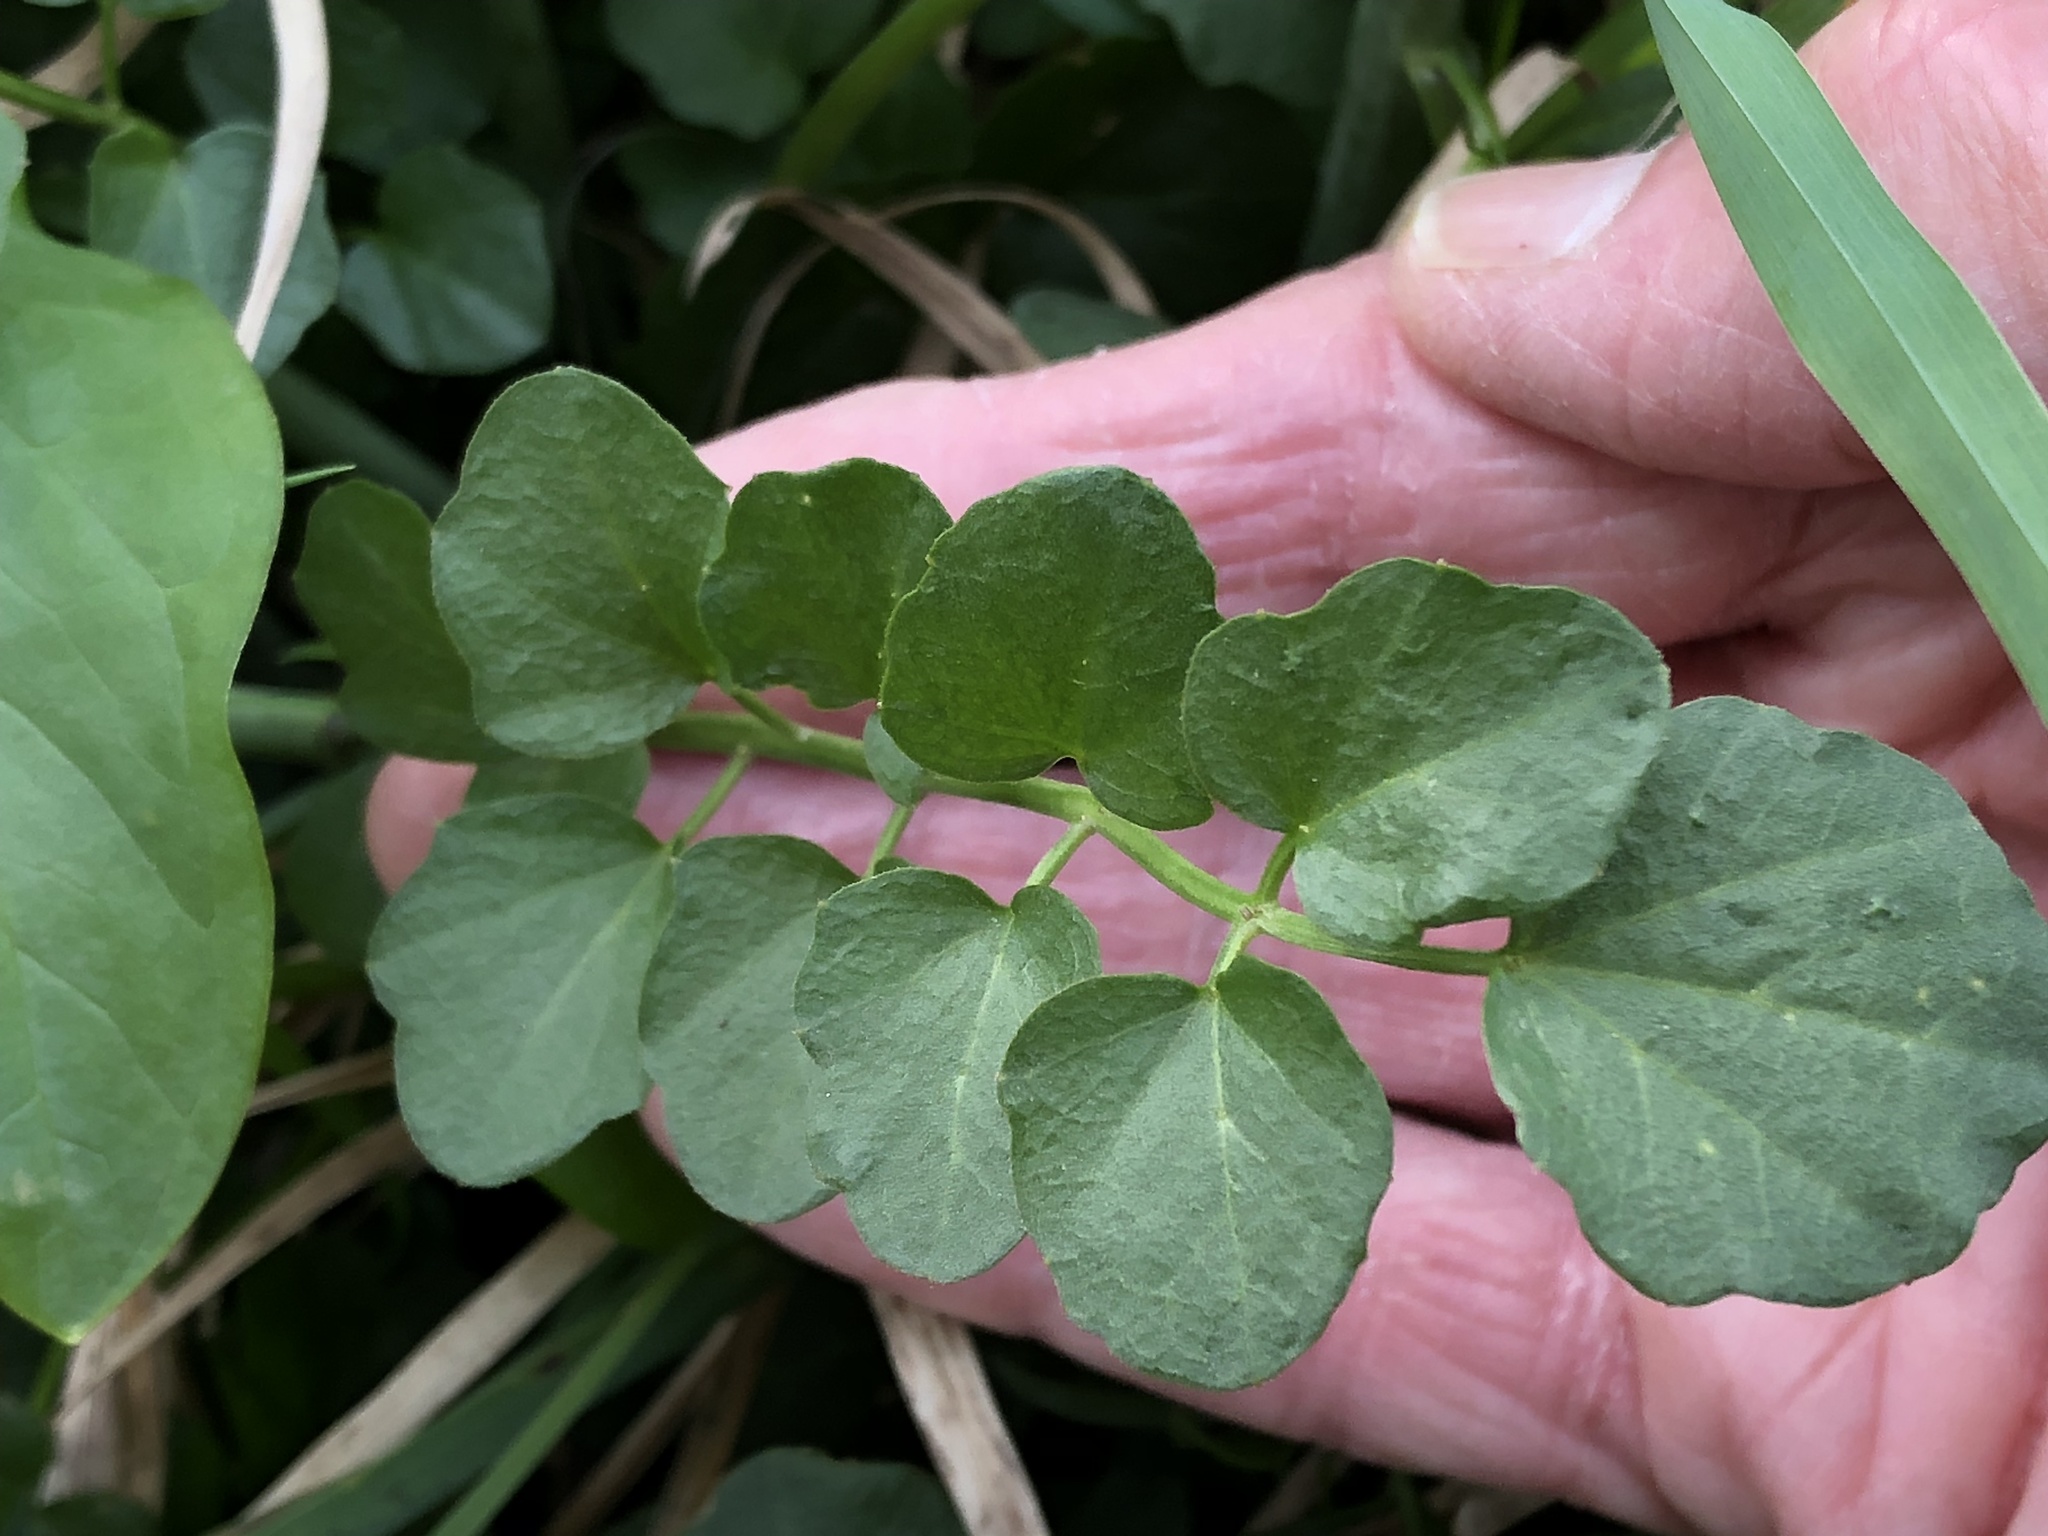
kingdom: Plantae
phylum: Tracheophyta
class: Magnoliopsida
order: Brassicales
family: Brassicaceae
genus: Cardamine
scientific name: Cardamine pratensis
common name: Cuckoo flower
